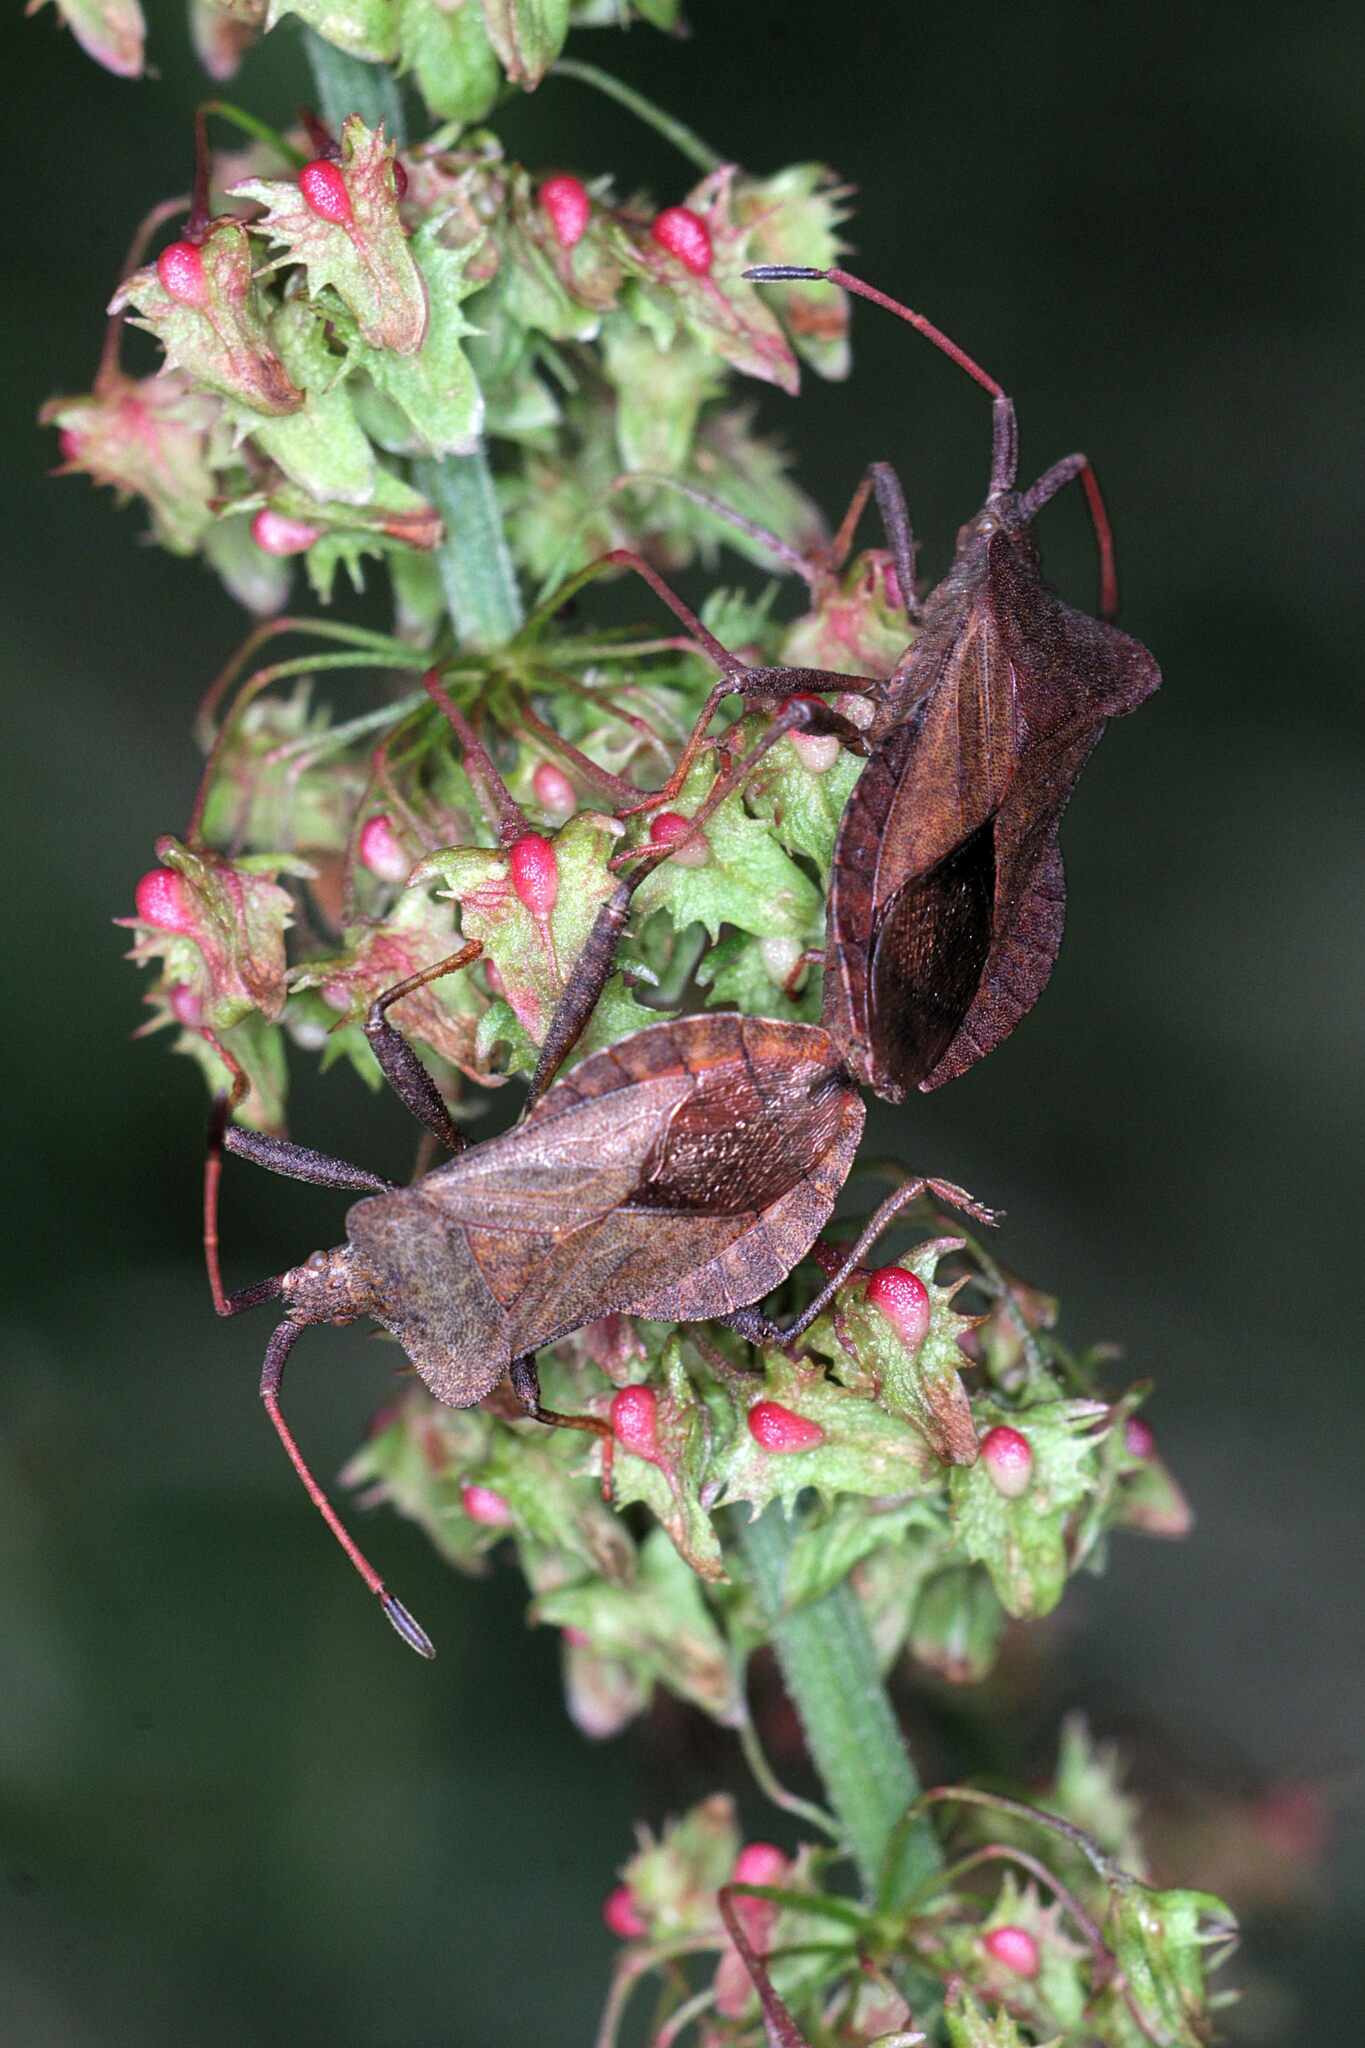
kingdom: Animalia
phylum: Arthropoda
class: Insecta
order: Hemiptera
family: Coreidae
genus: Coreus
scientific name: Coreus marginatus
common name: Dock bug
